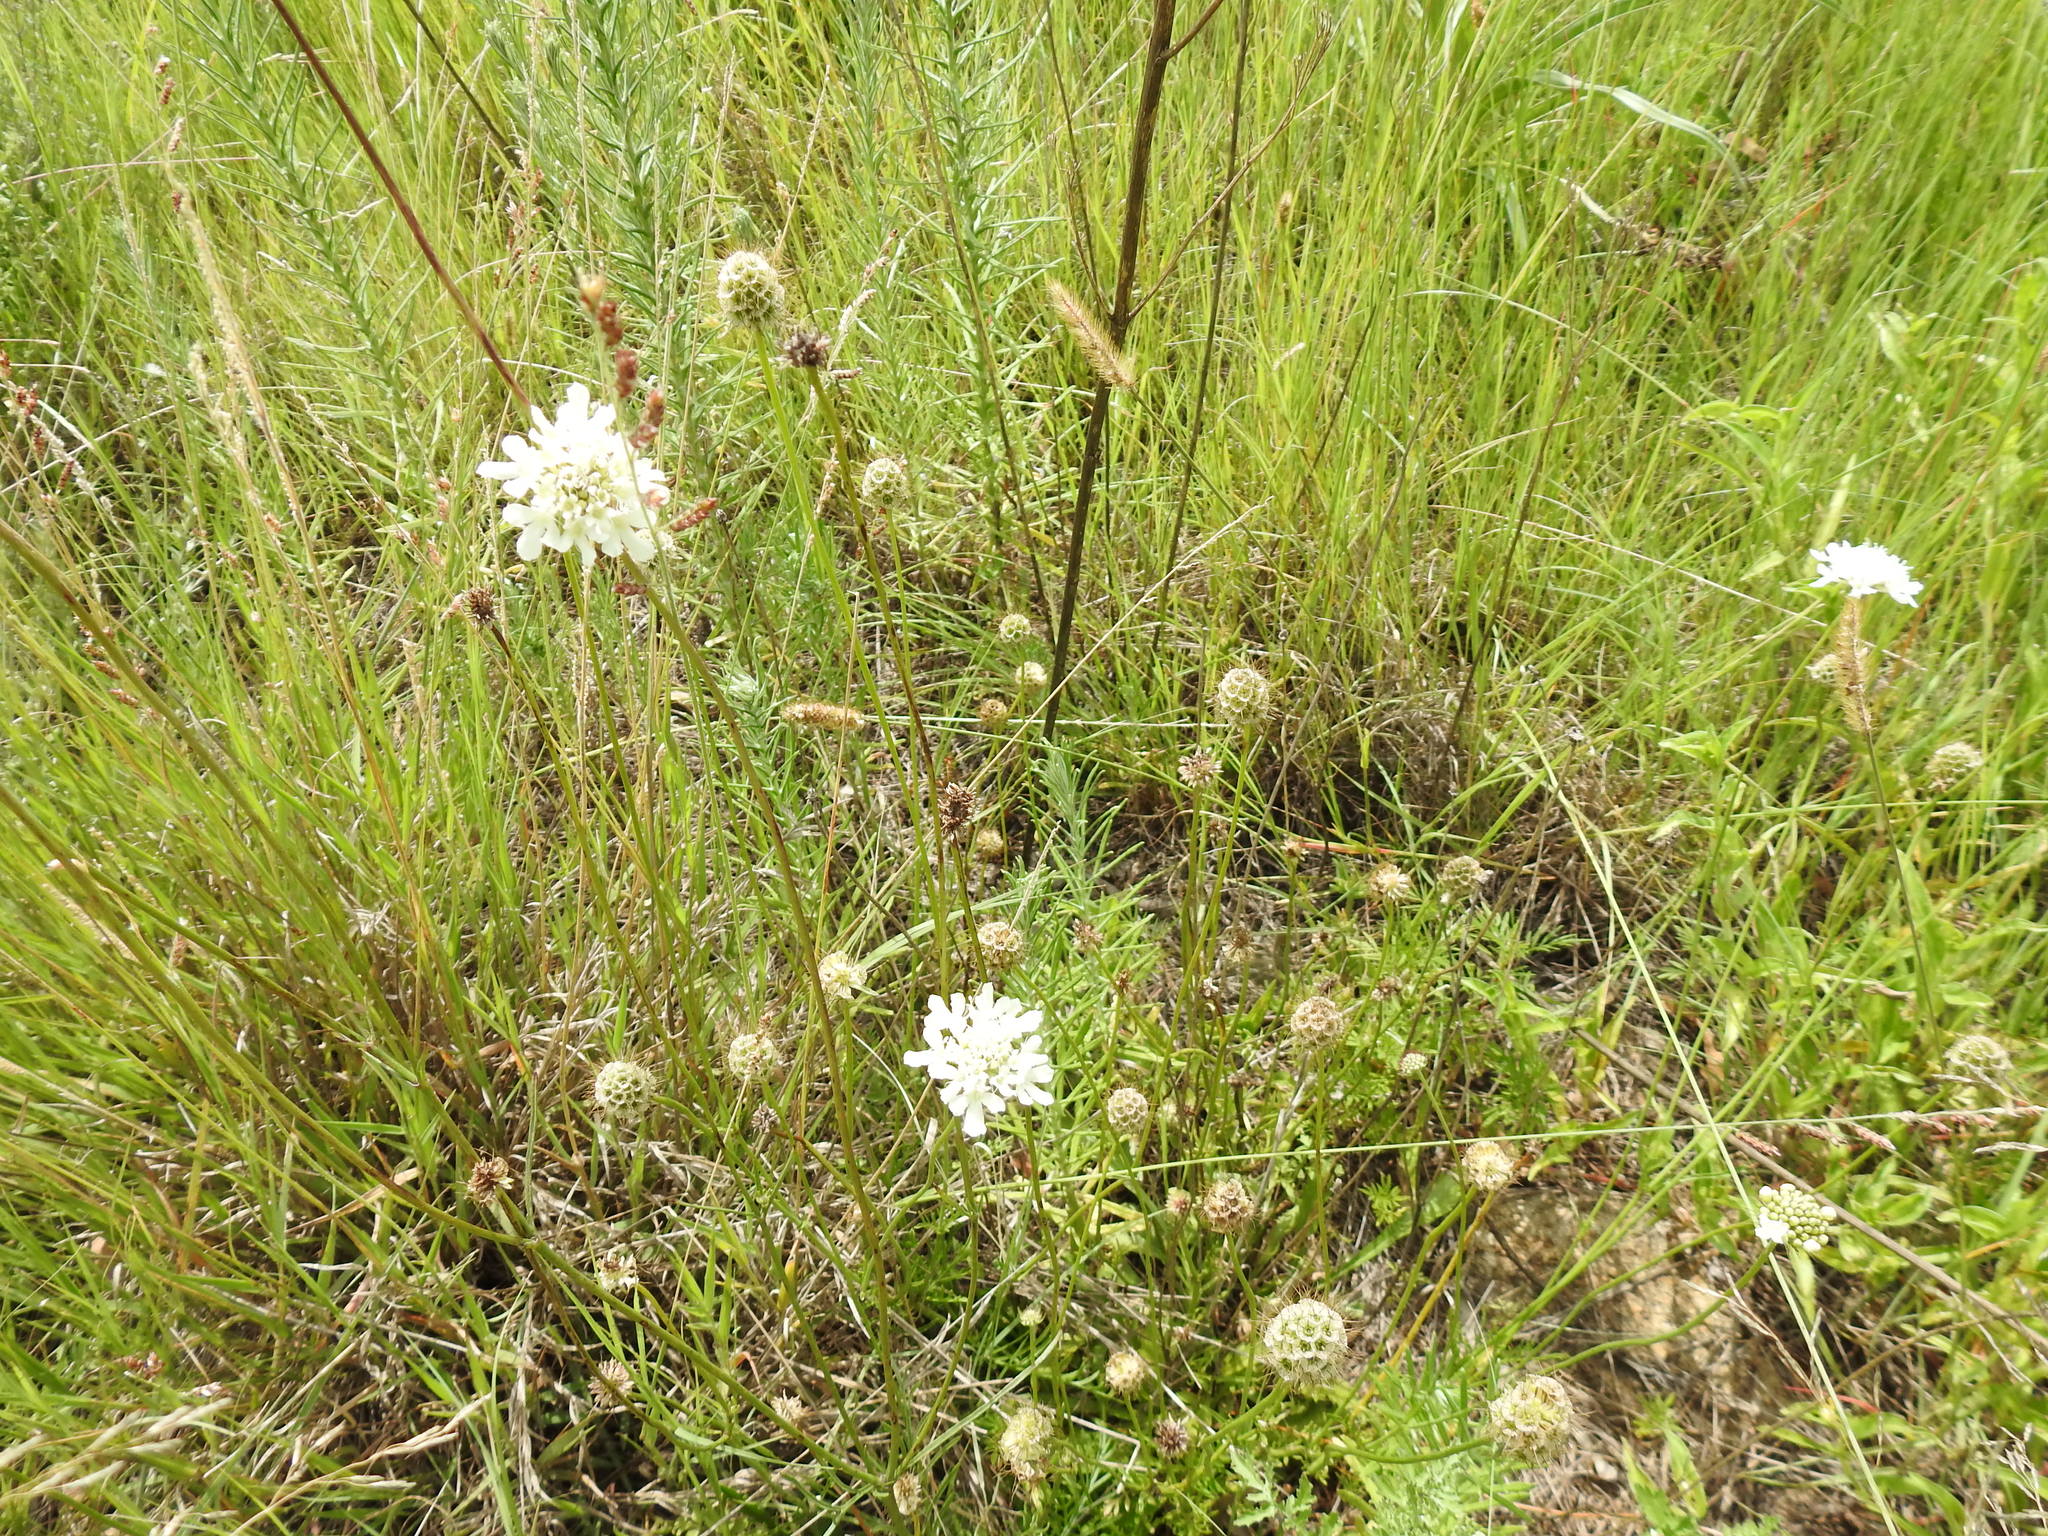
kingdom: Plantae
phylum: Tracheophyta
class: Magnoliopsida
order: Dipsacales
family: Caprifoliaceae
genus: Scabiosa
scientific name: Scabiosa columbaria
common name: Small scabious
